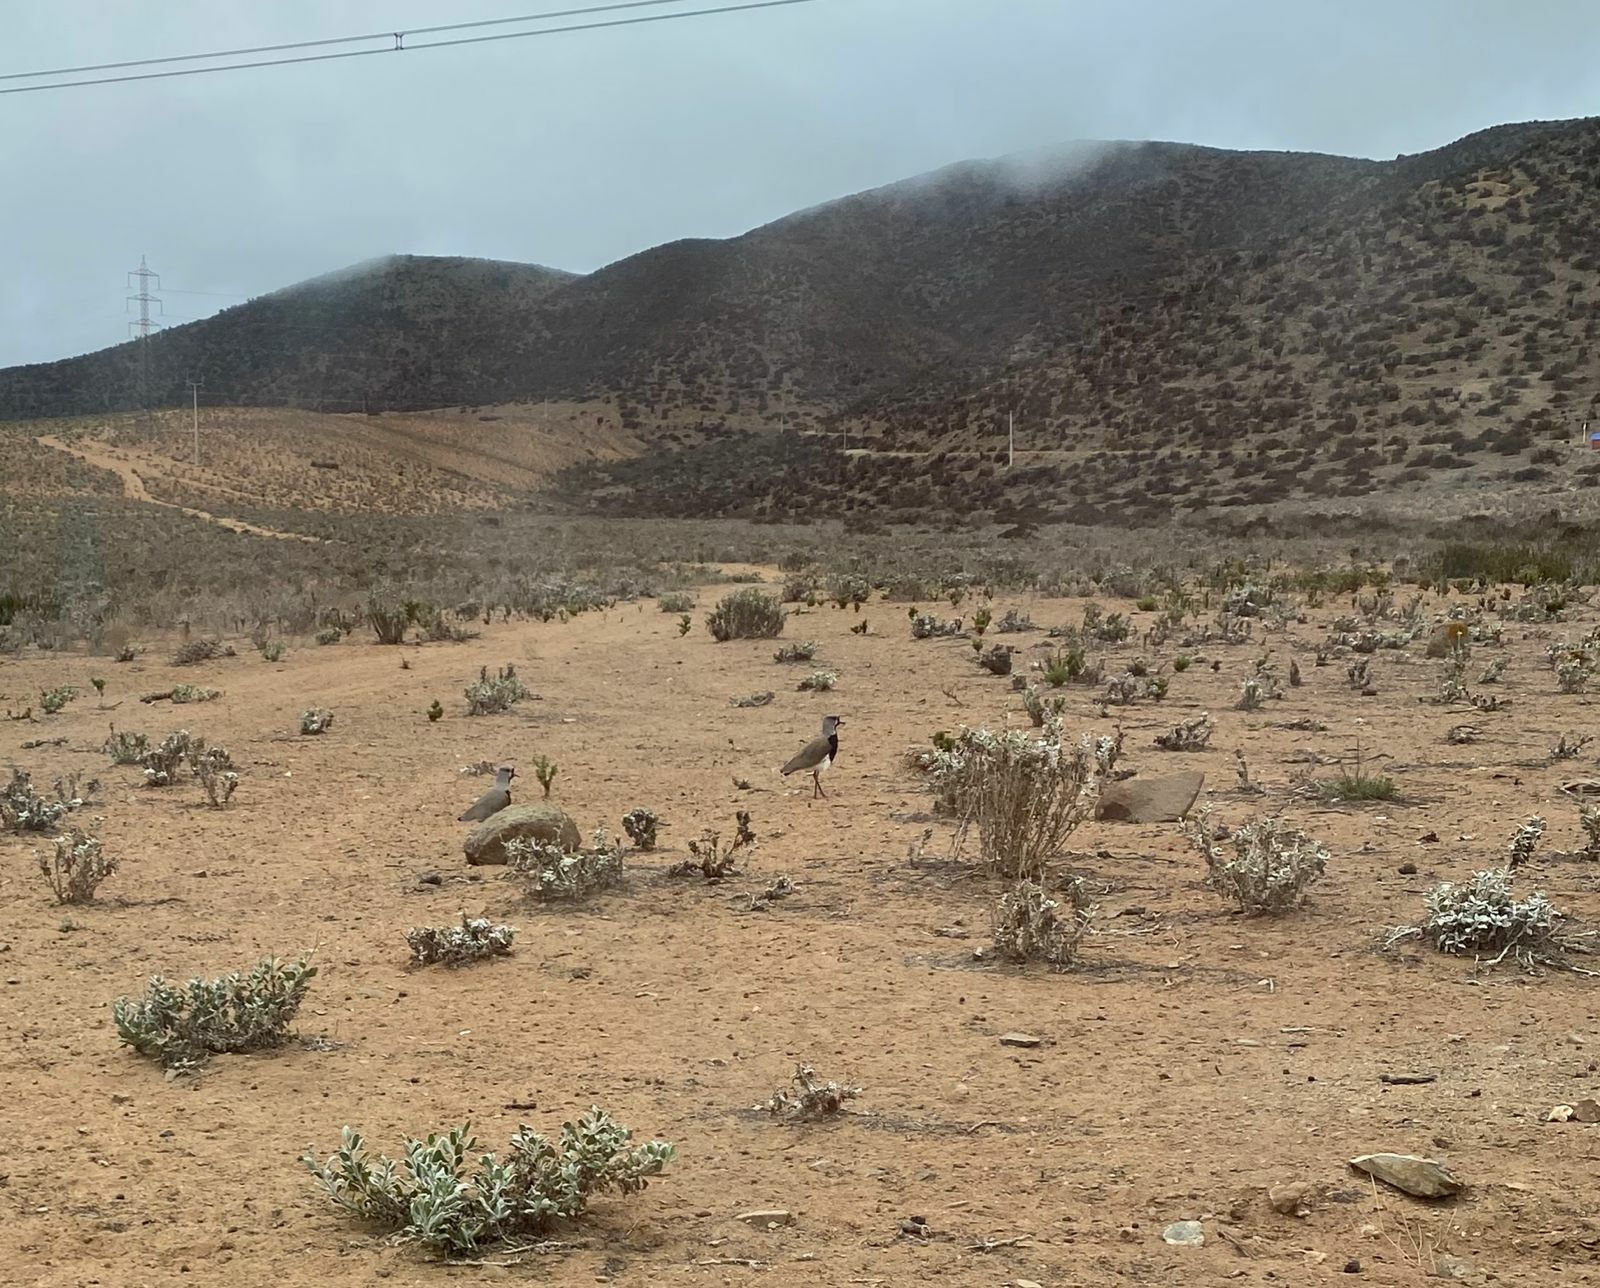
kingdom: Animalia
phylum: Chordata
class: Aves
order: Charadriiformes
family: Charadriidae
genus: Vanellus
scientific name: Vanellus chilensis
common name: Southern lapwing
